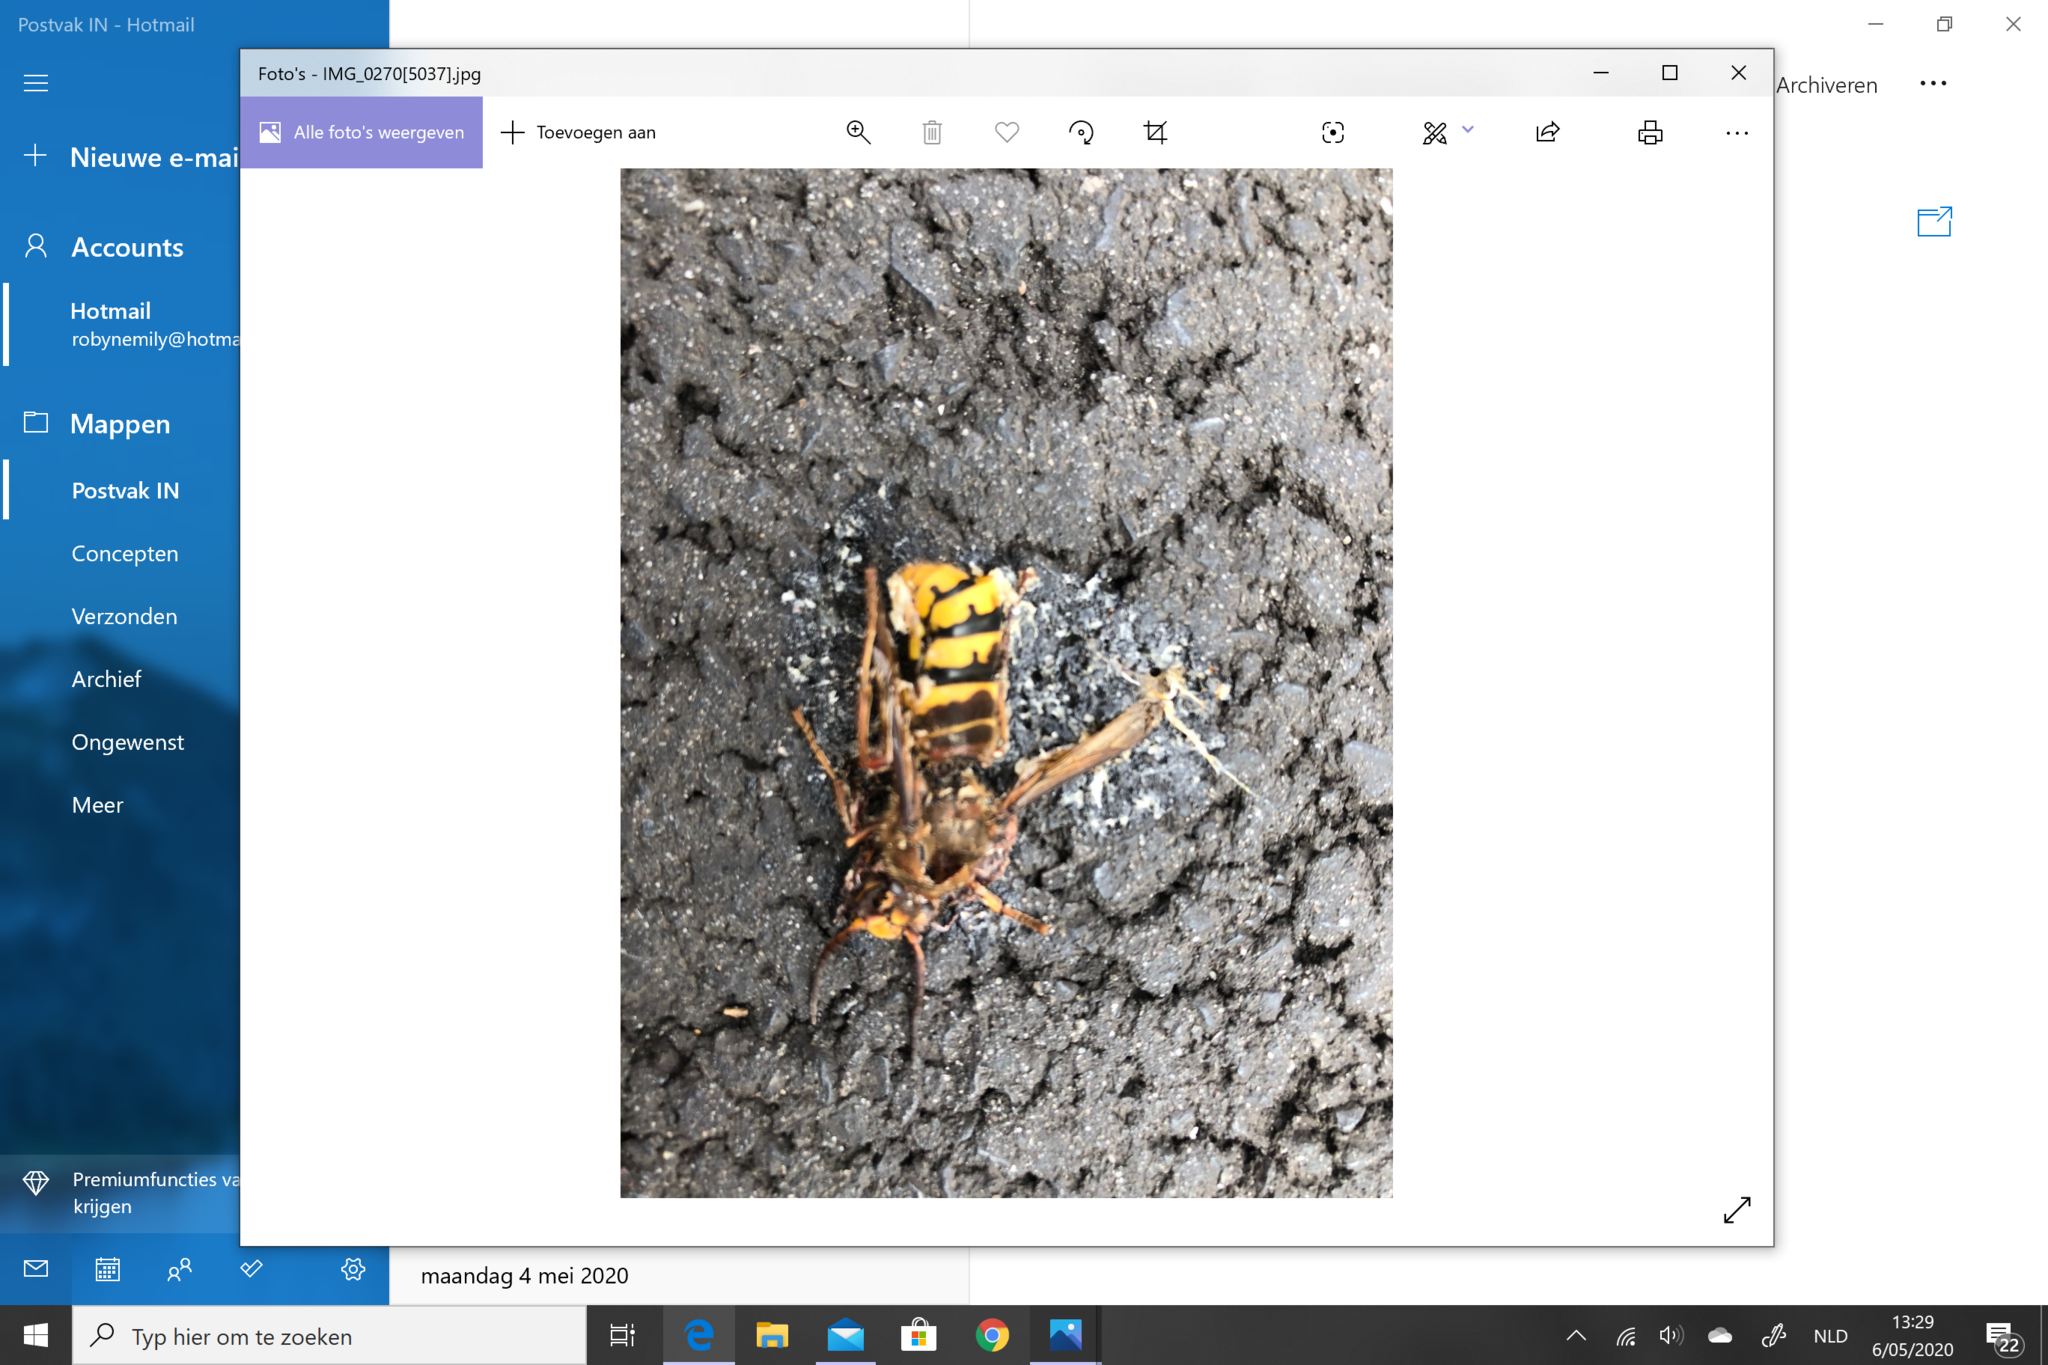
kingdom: Animalia
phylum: Arthropoda
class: Insecta
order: Hymenoptera
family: Vespidae
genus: Vespa
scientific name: Vespa crabro
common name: Hornet
